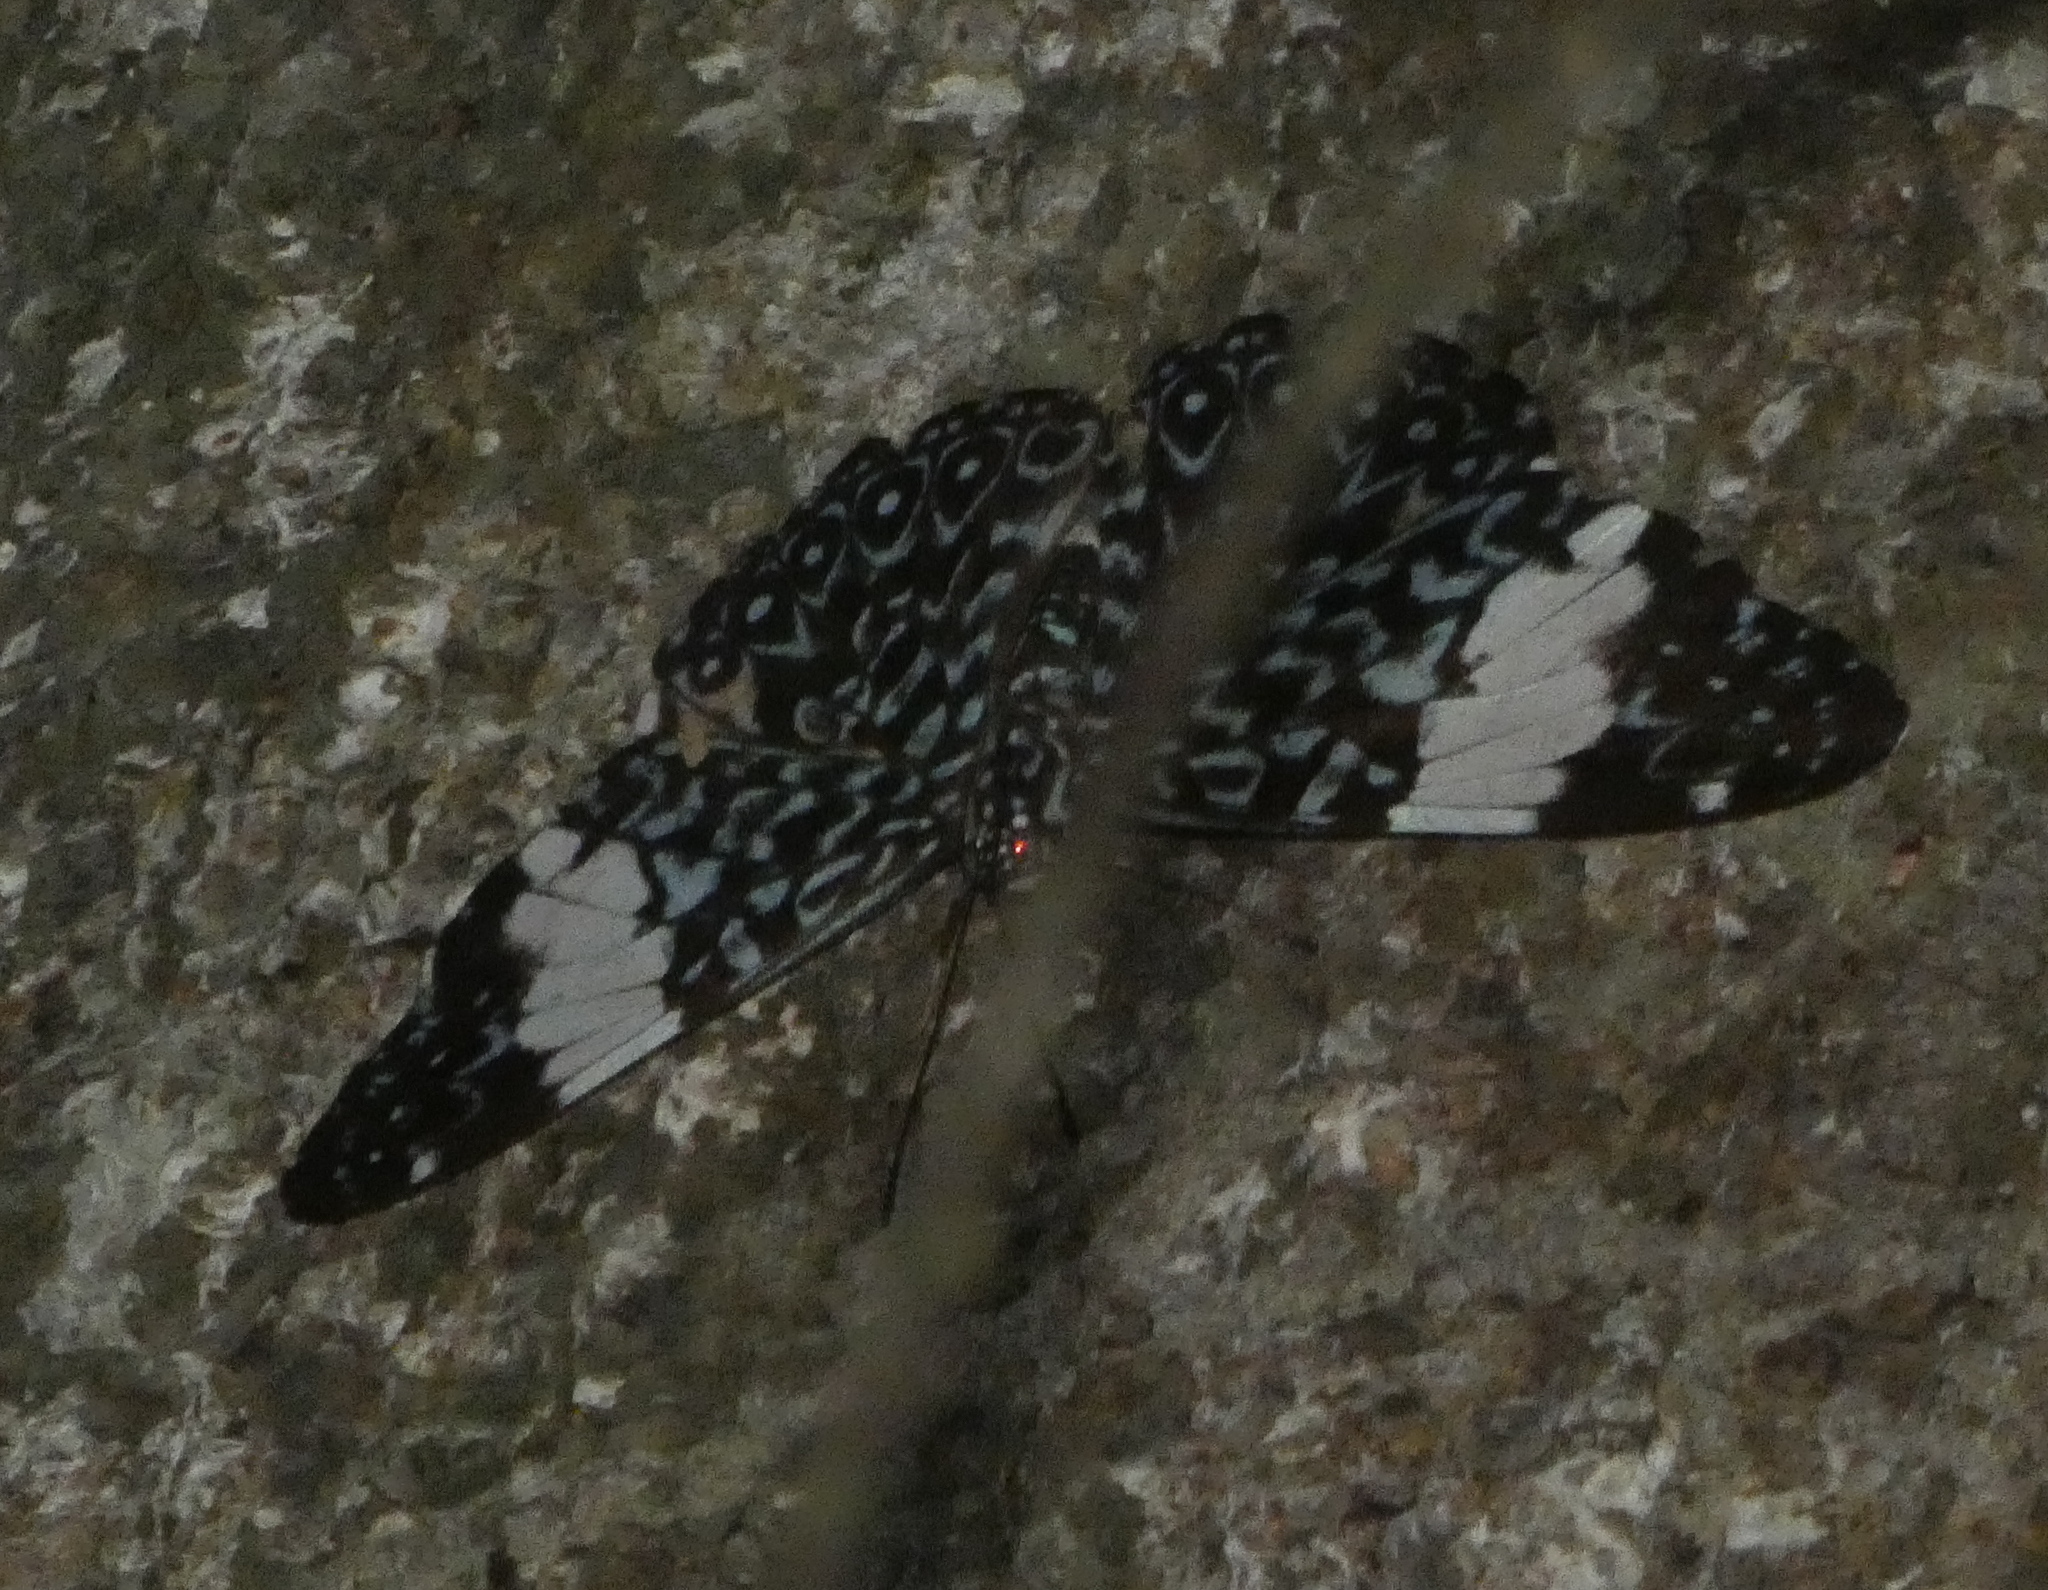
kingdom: Animalia
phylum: Arthropoda
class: Insecta
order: Lepidoptera
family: Nymphalidae
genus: Hamadryas
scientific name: Hamadryas amphinome
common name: Red cracker
